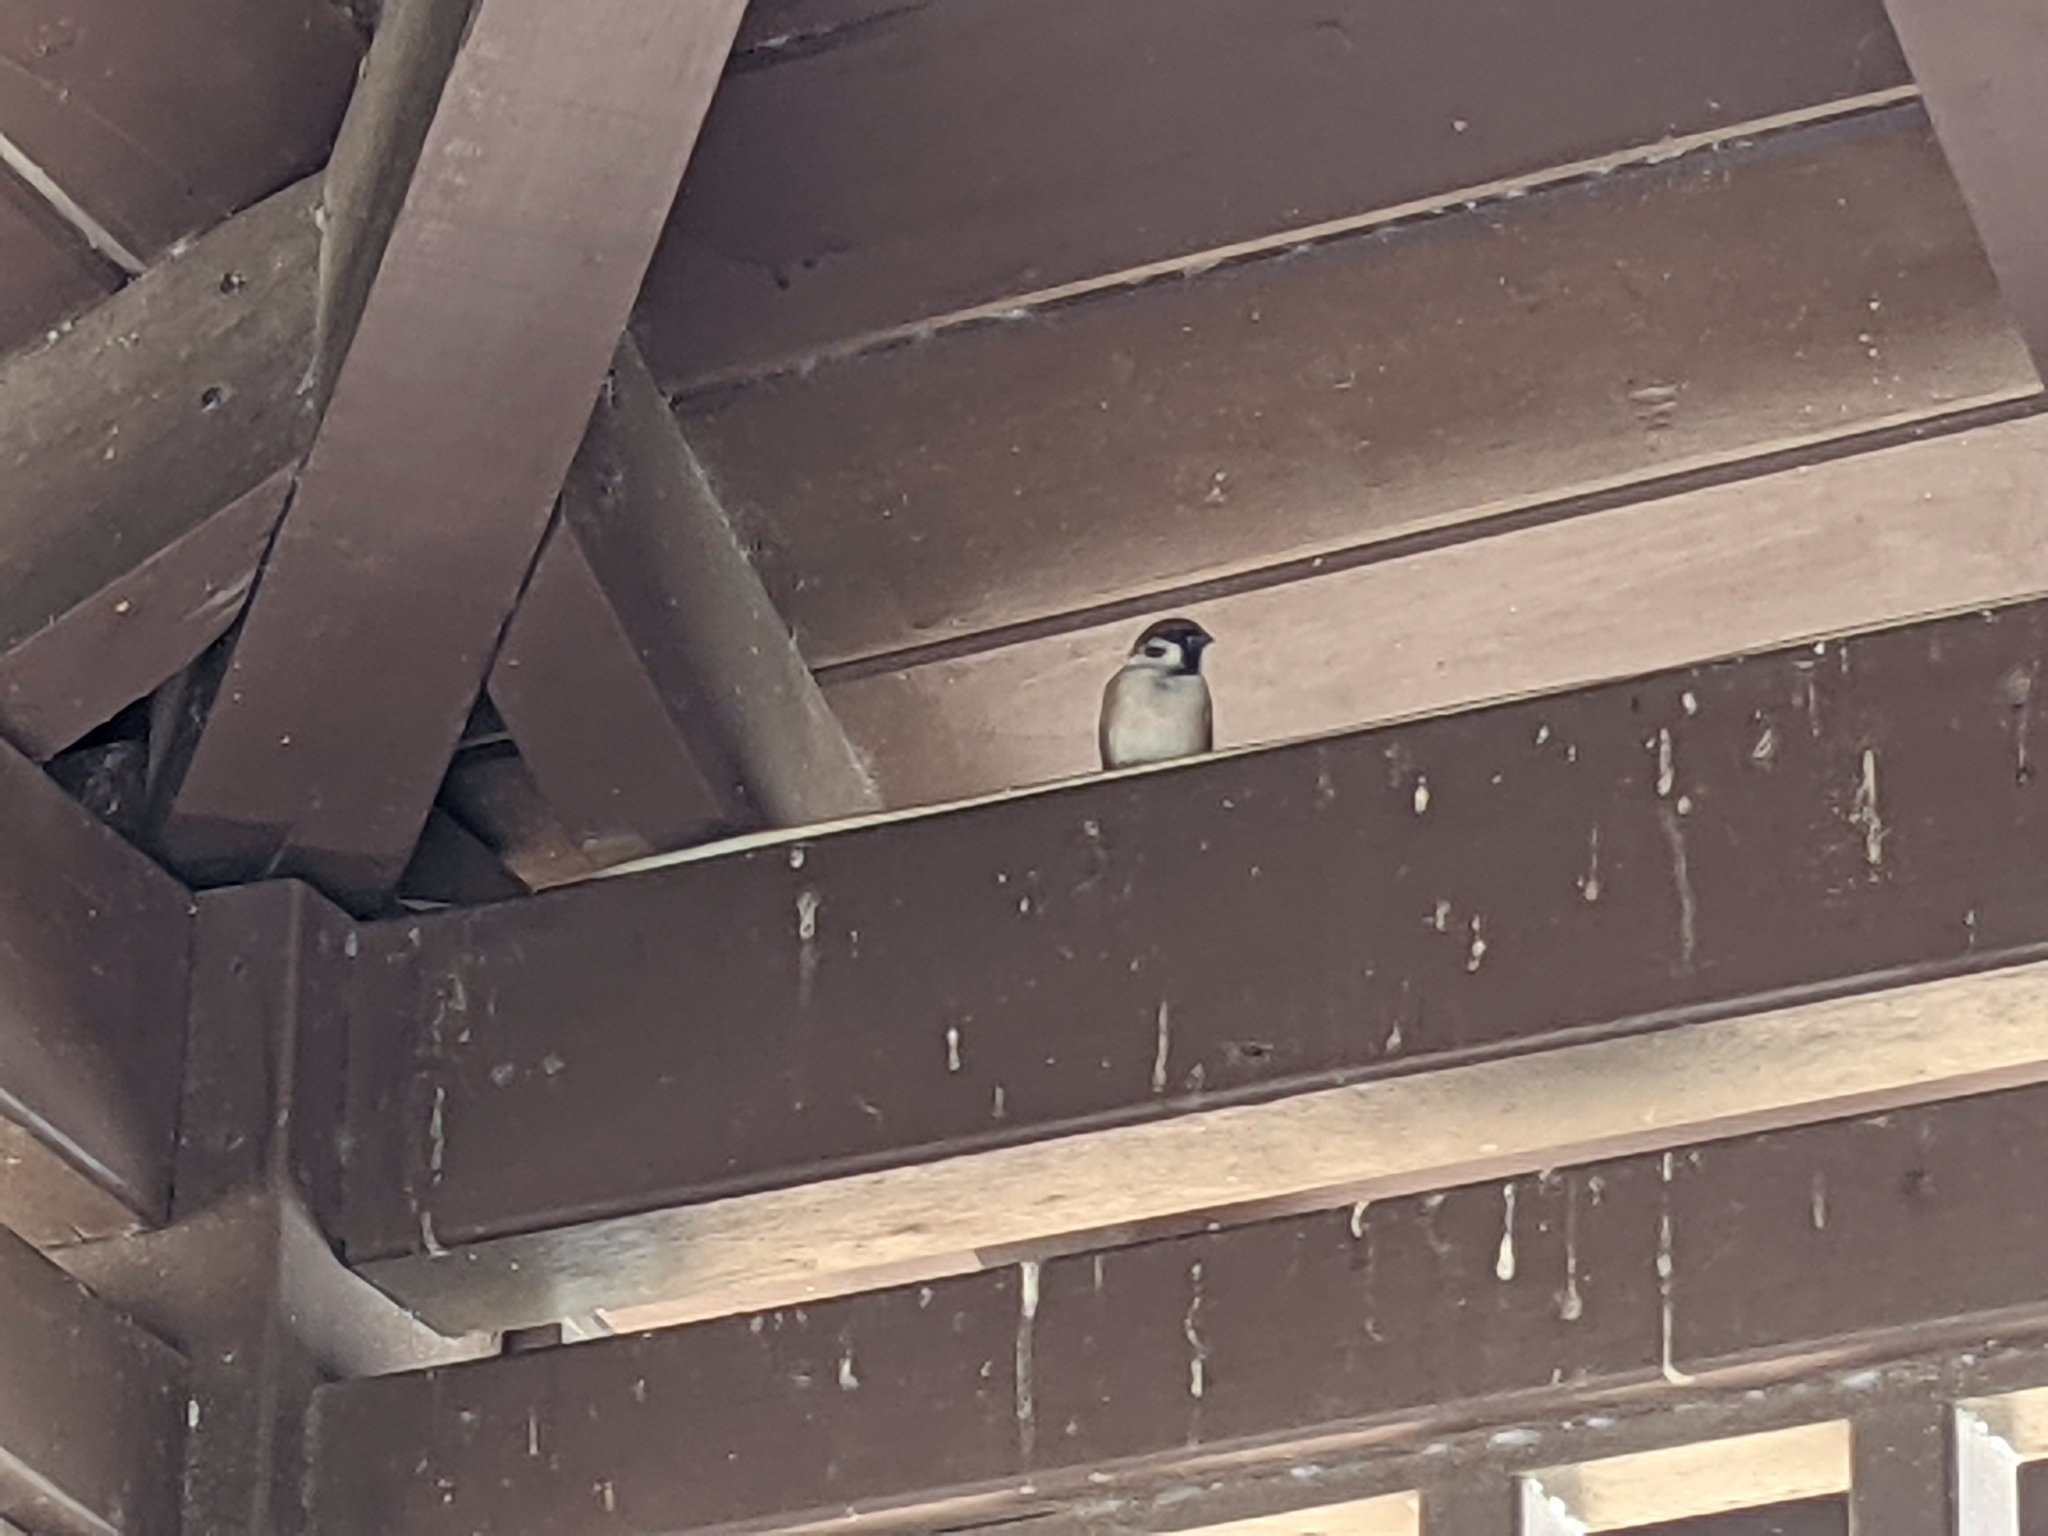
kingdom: Animalia
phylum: Chordata
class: Aves
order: Passeriformes
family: Passeridae
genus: Passer
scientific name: Passer montanus
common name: Eurasian tree sparrow
